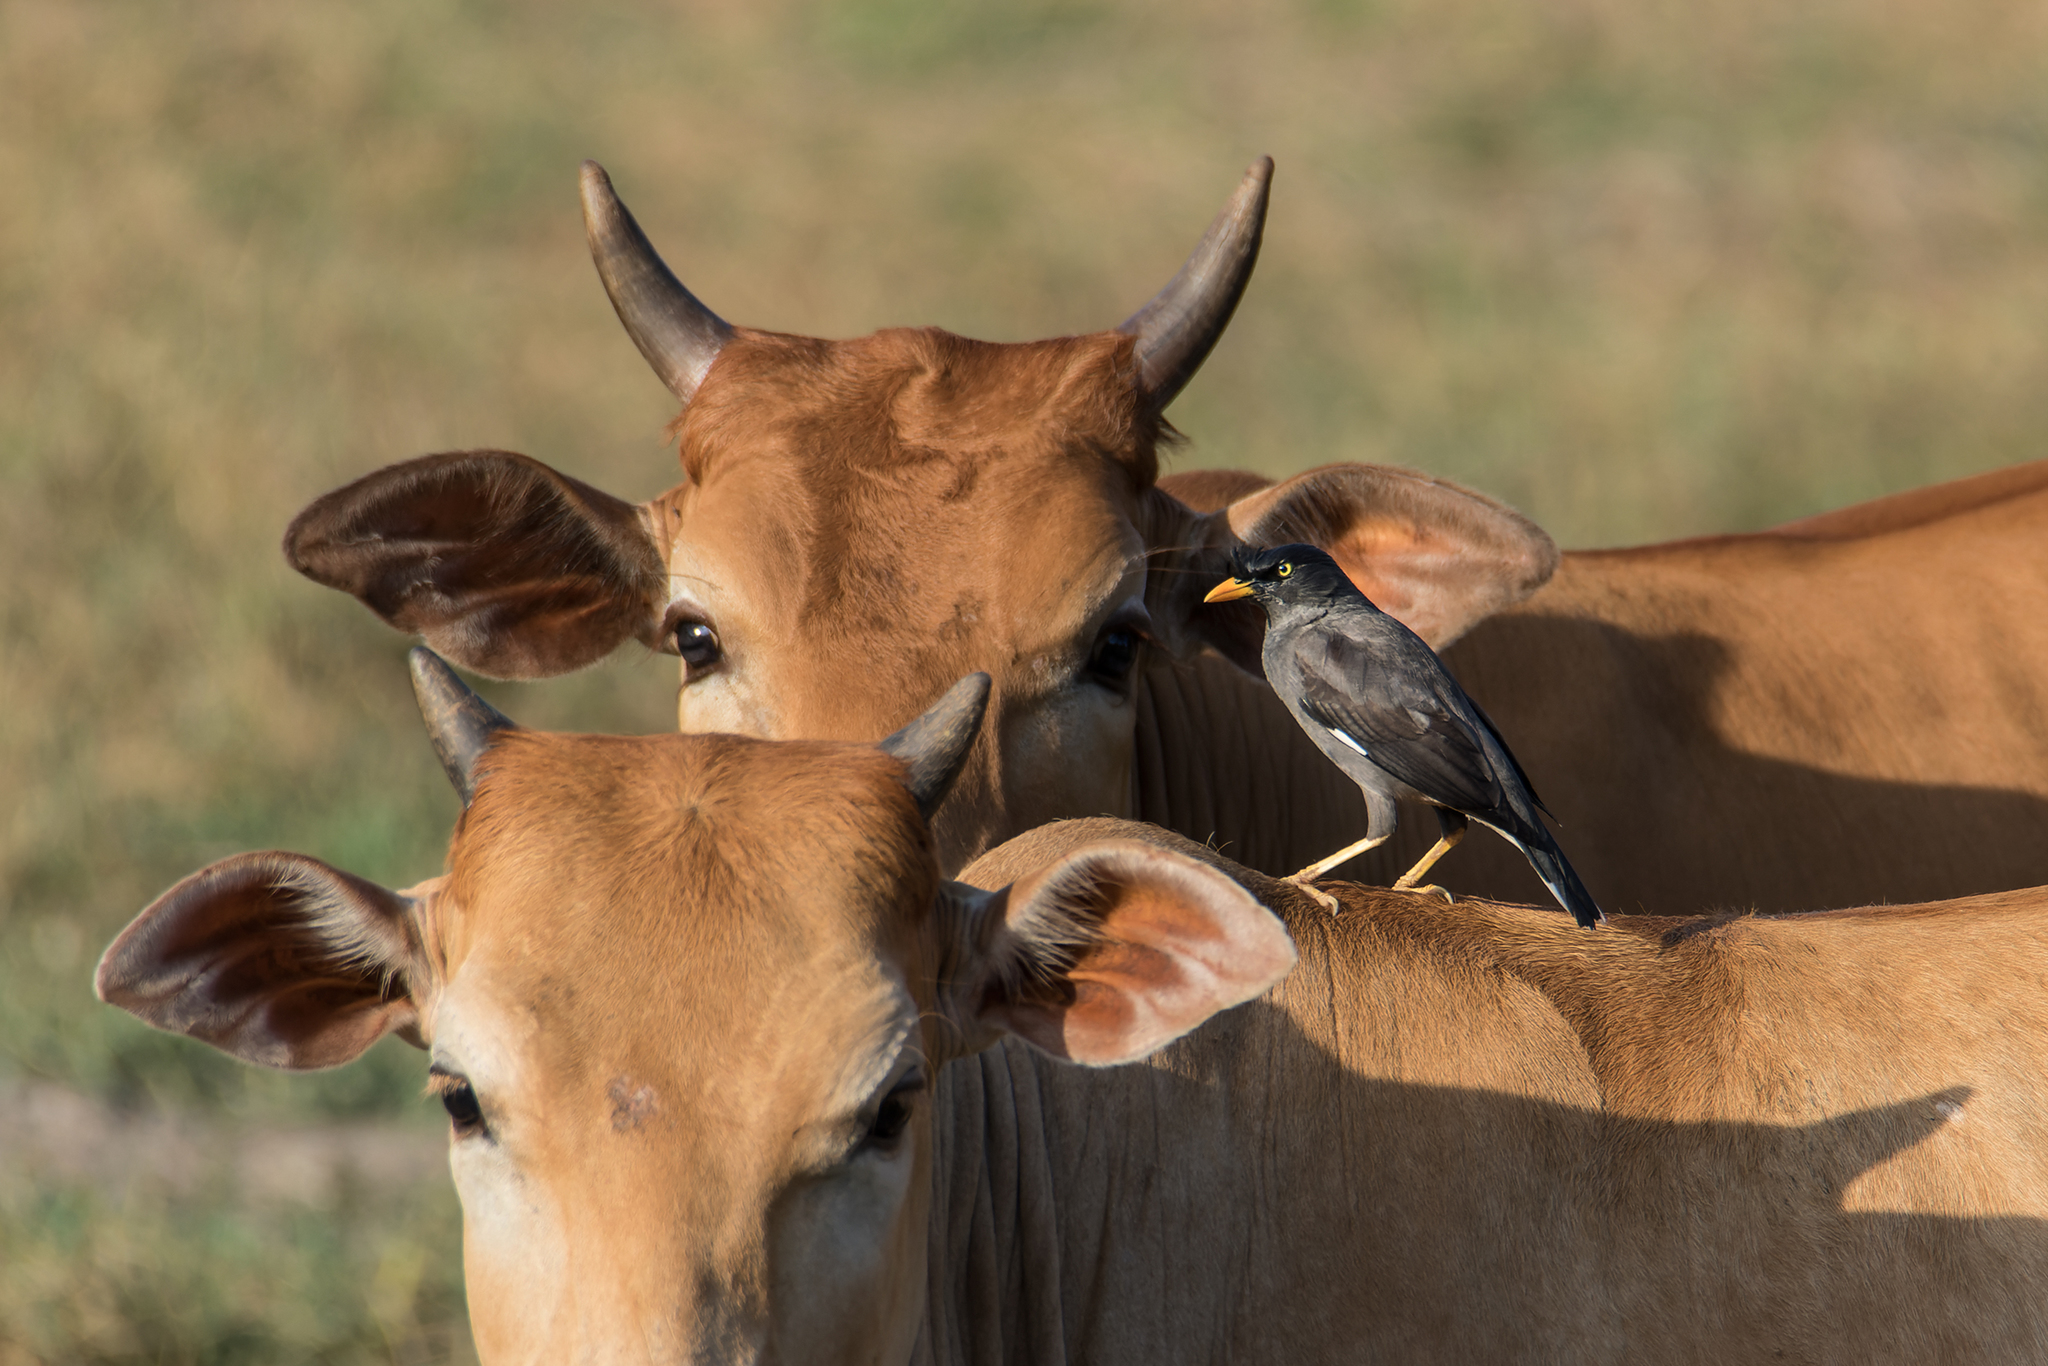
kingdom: Animalia
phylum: Chordata
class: Aves
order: Passeriformes
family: Sturnidae
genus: Acridotheres
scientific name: Acridotheres fuscus
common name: Jungle myna
